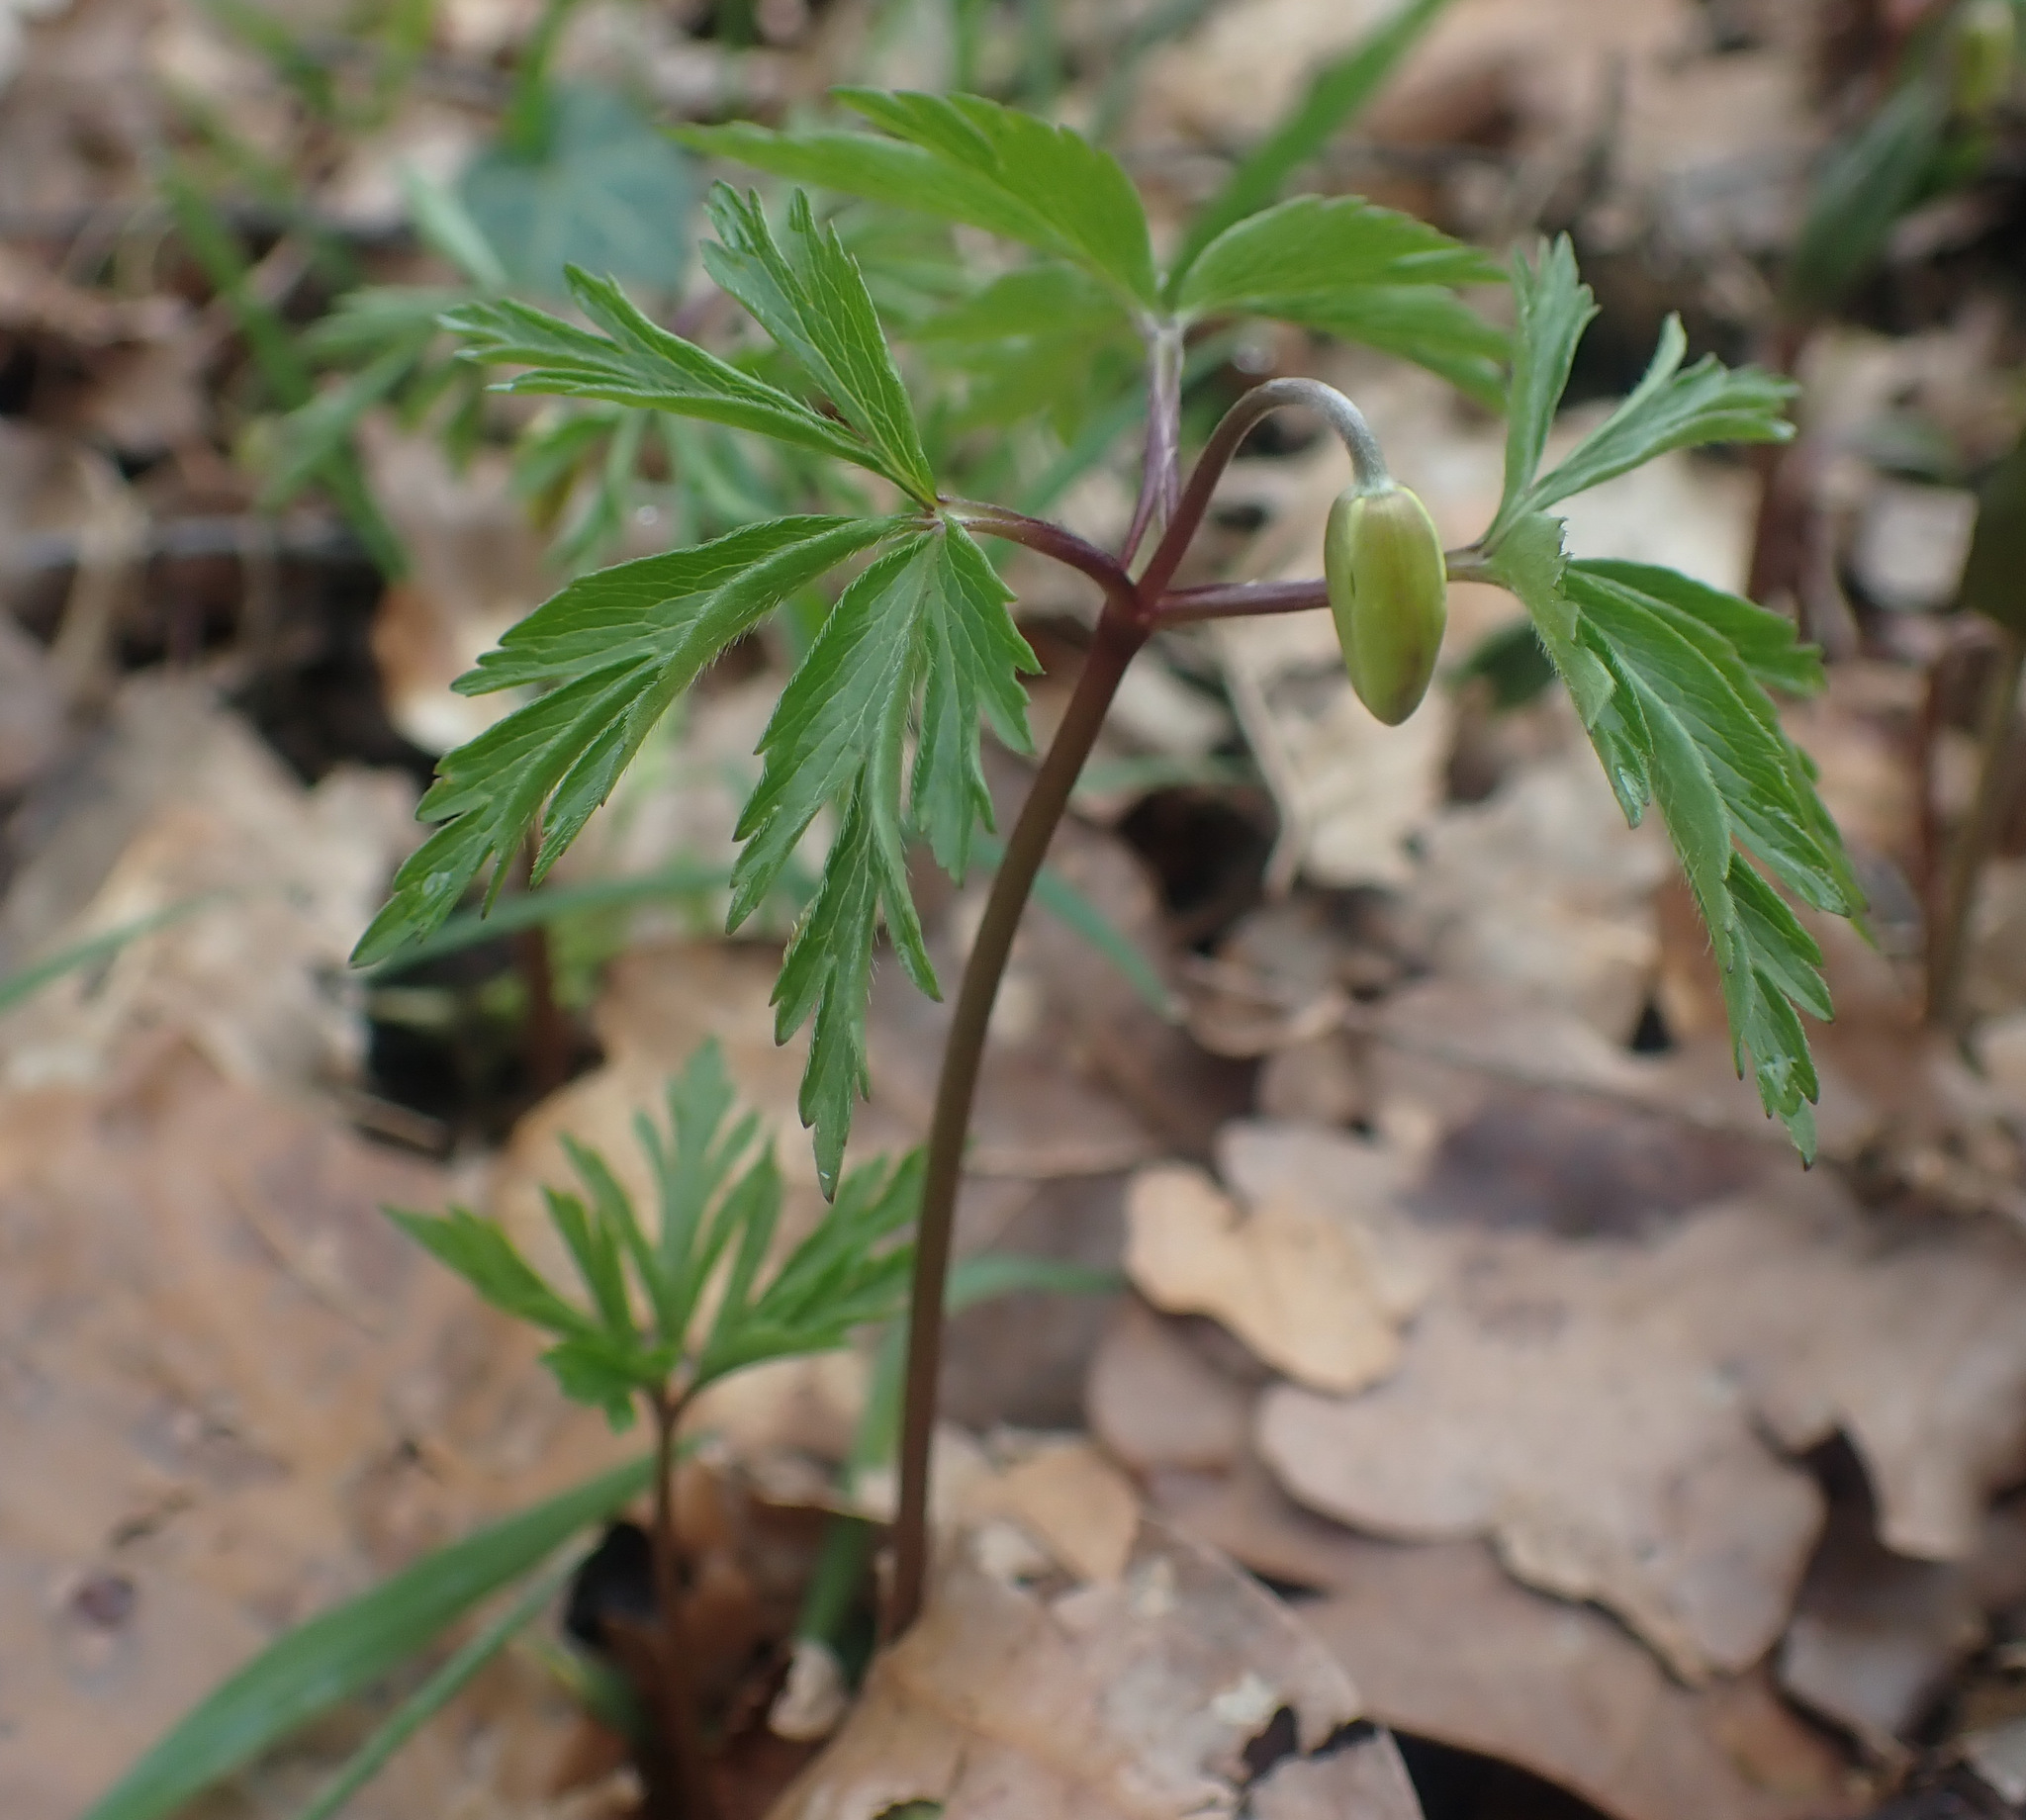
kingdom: Plantae
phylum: Tracheophyta
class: Magnoliopsida
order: Ranunculales
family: Ranunculaceae
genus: Anemone
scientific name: Anemone nemorosa
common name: Wood anemone
